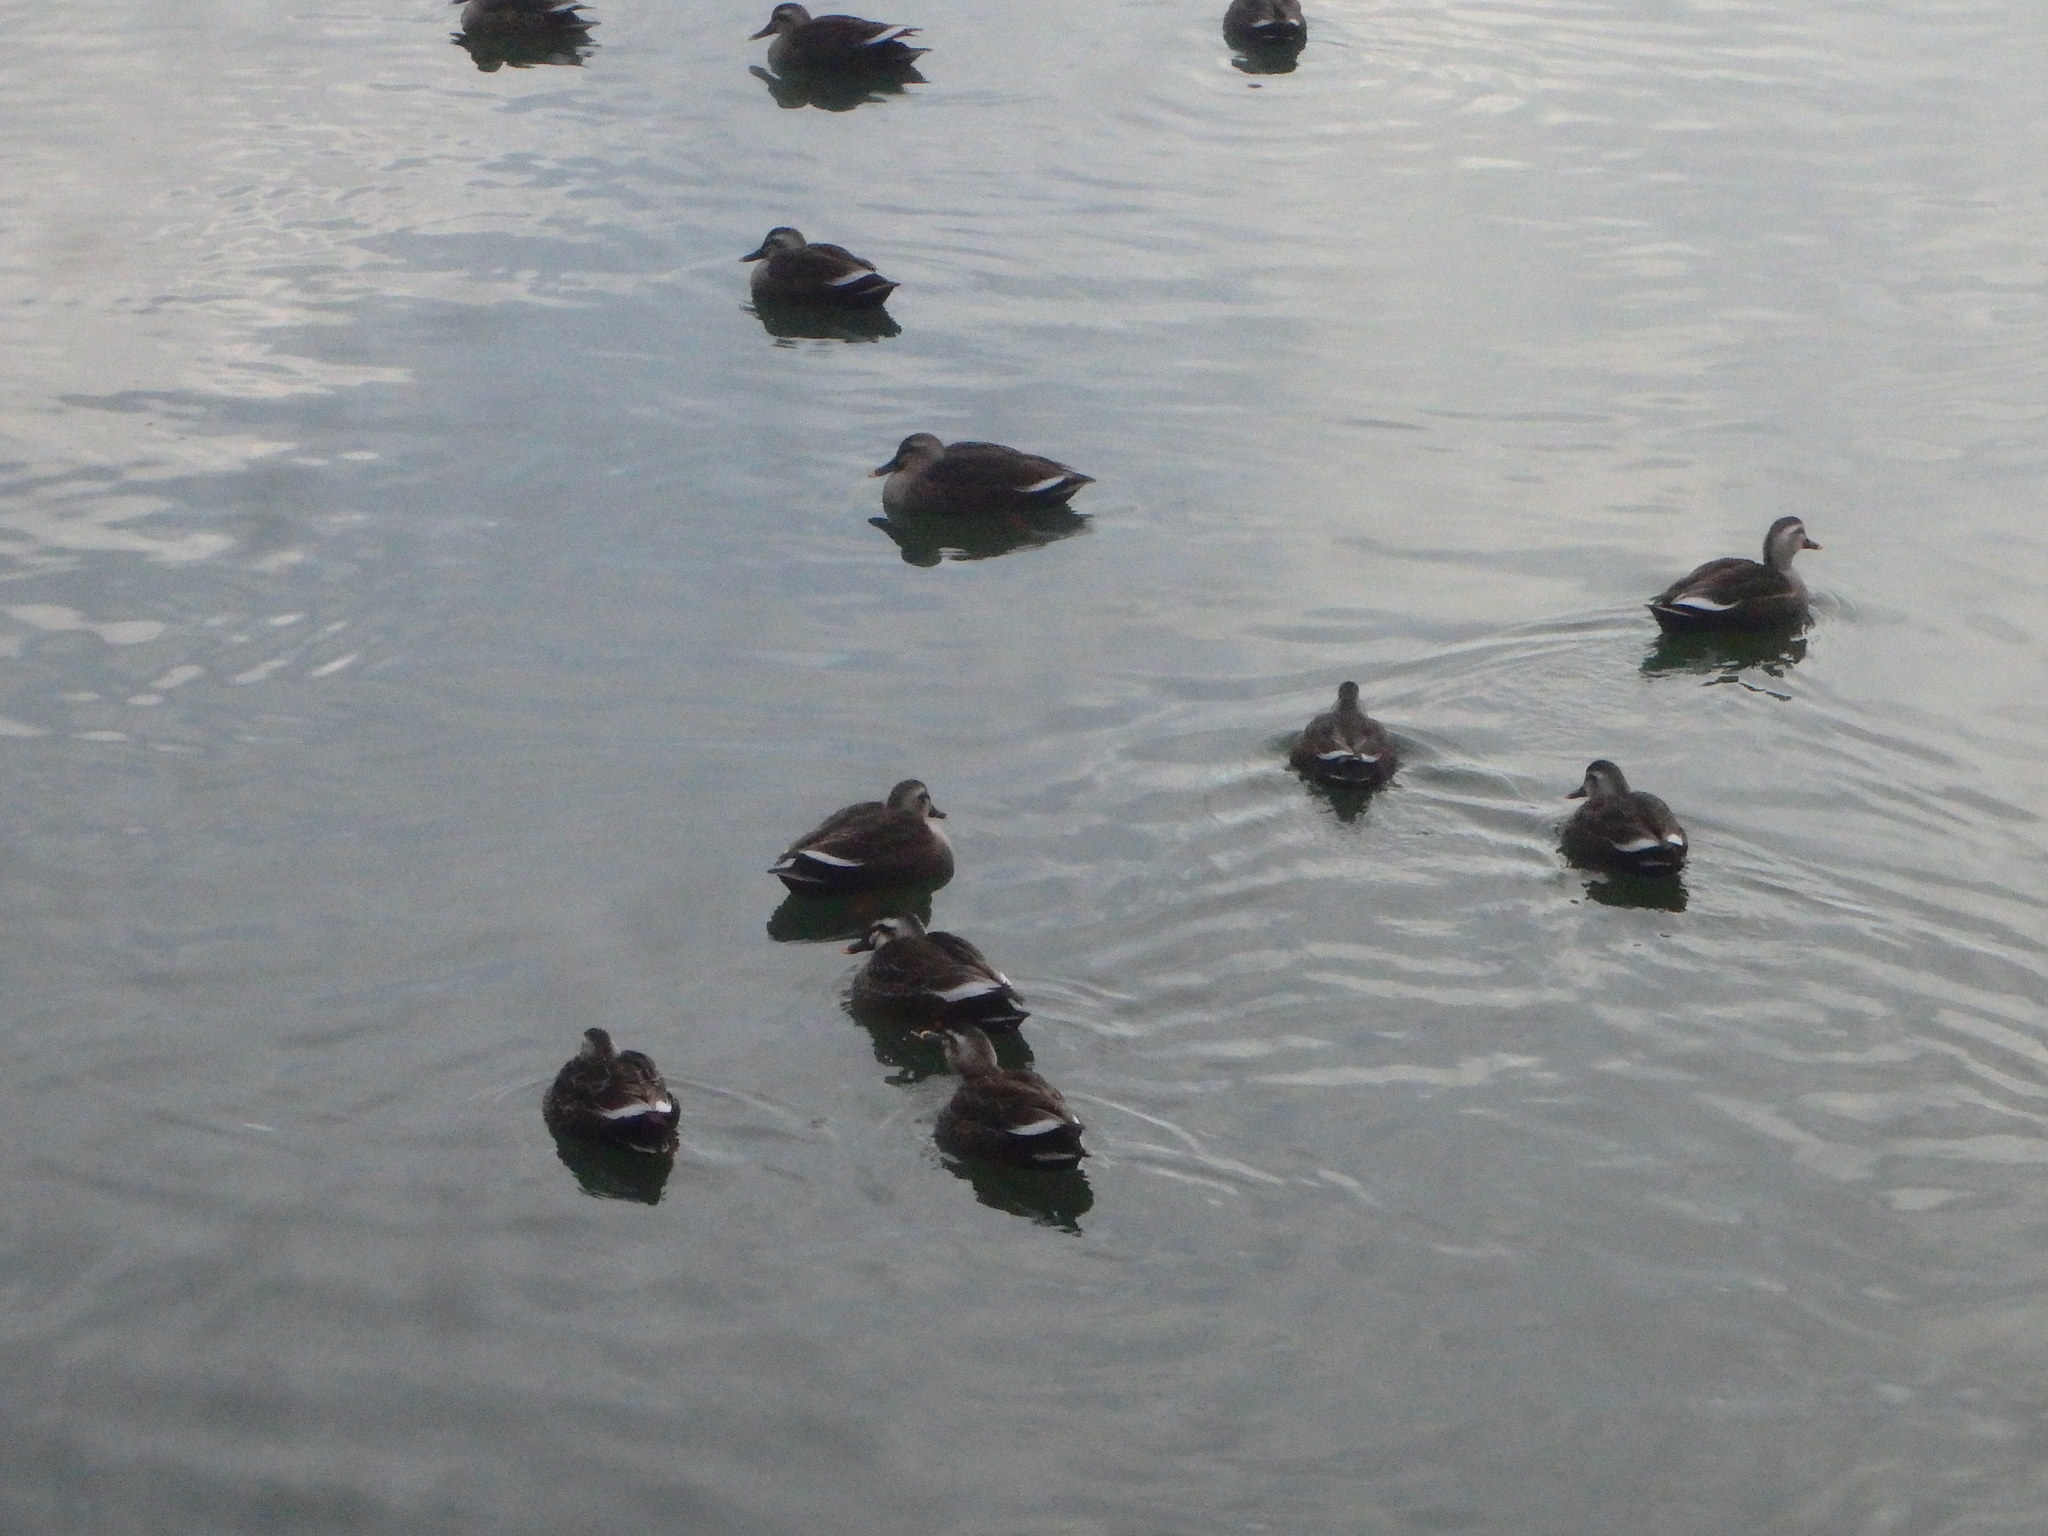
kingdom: Animalia
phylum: Chordata
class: Aves
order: Anseriformes
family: Anatidae
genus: Anas
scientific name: Anas zonorhyncha
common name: Eastern spot-billed duck
